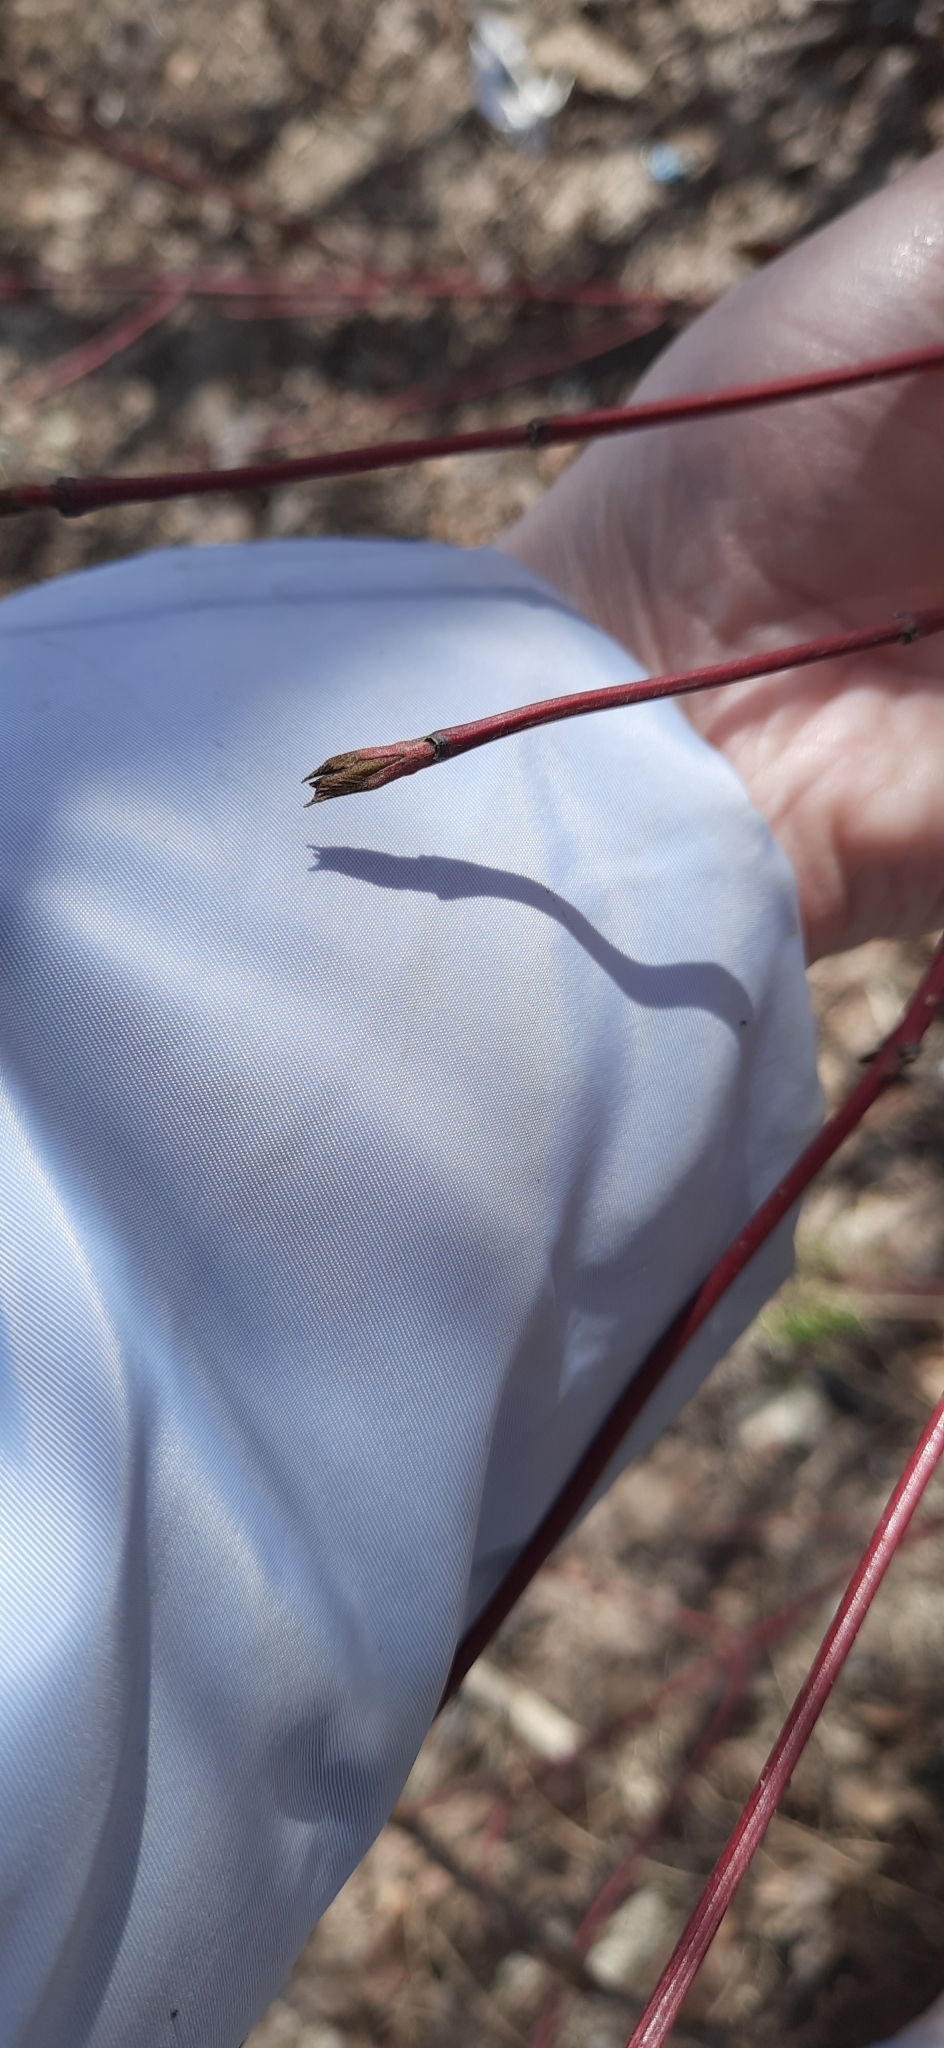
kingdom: Plantae
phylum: Tracheophyta
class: Magnoliopsida
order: Cornales
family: Cornaceae
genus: Cornus
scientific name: Cornus alba
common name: White dogwood
